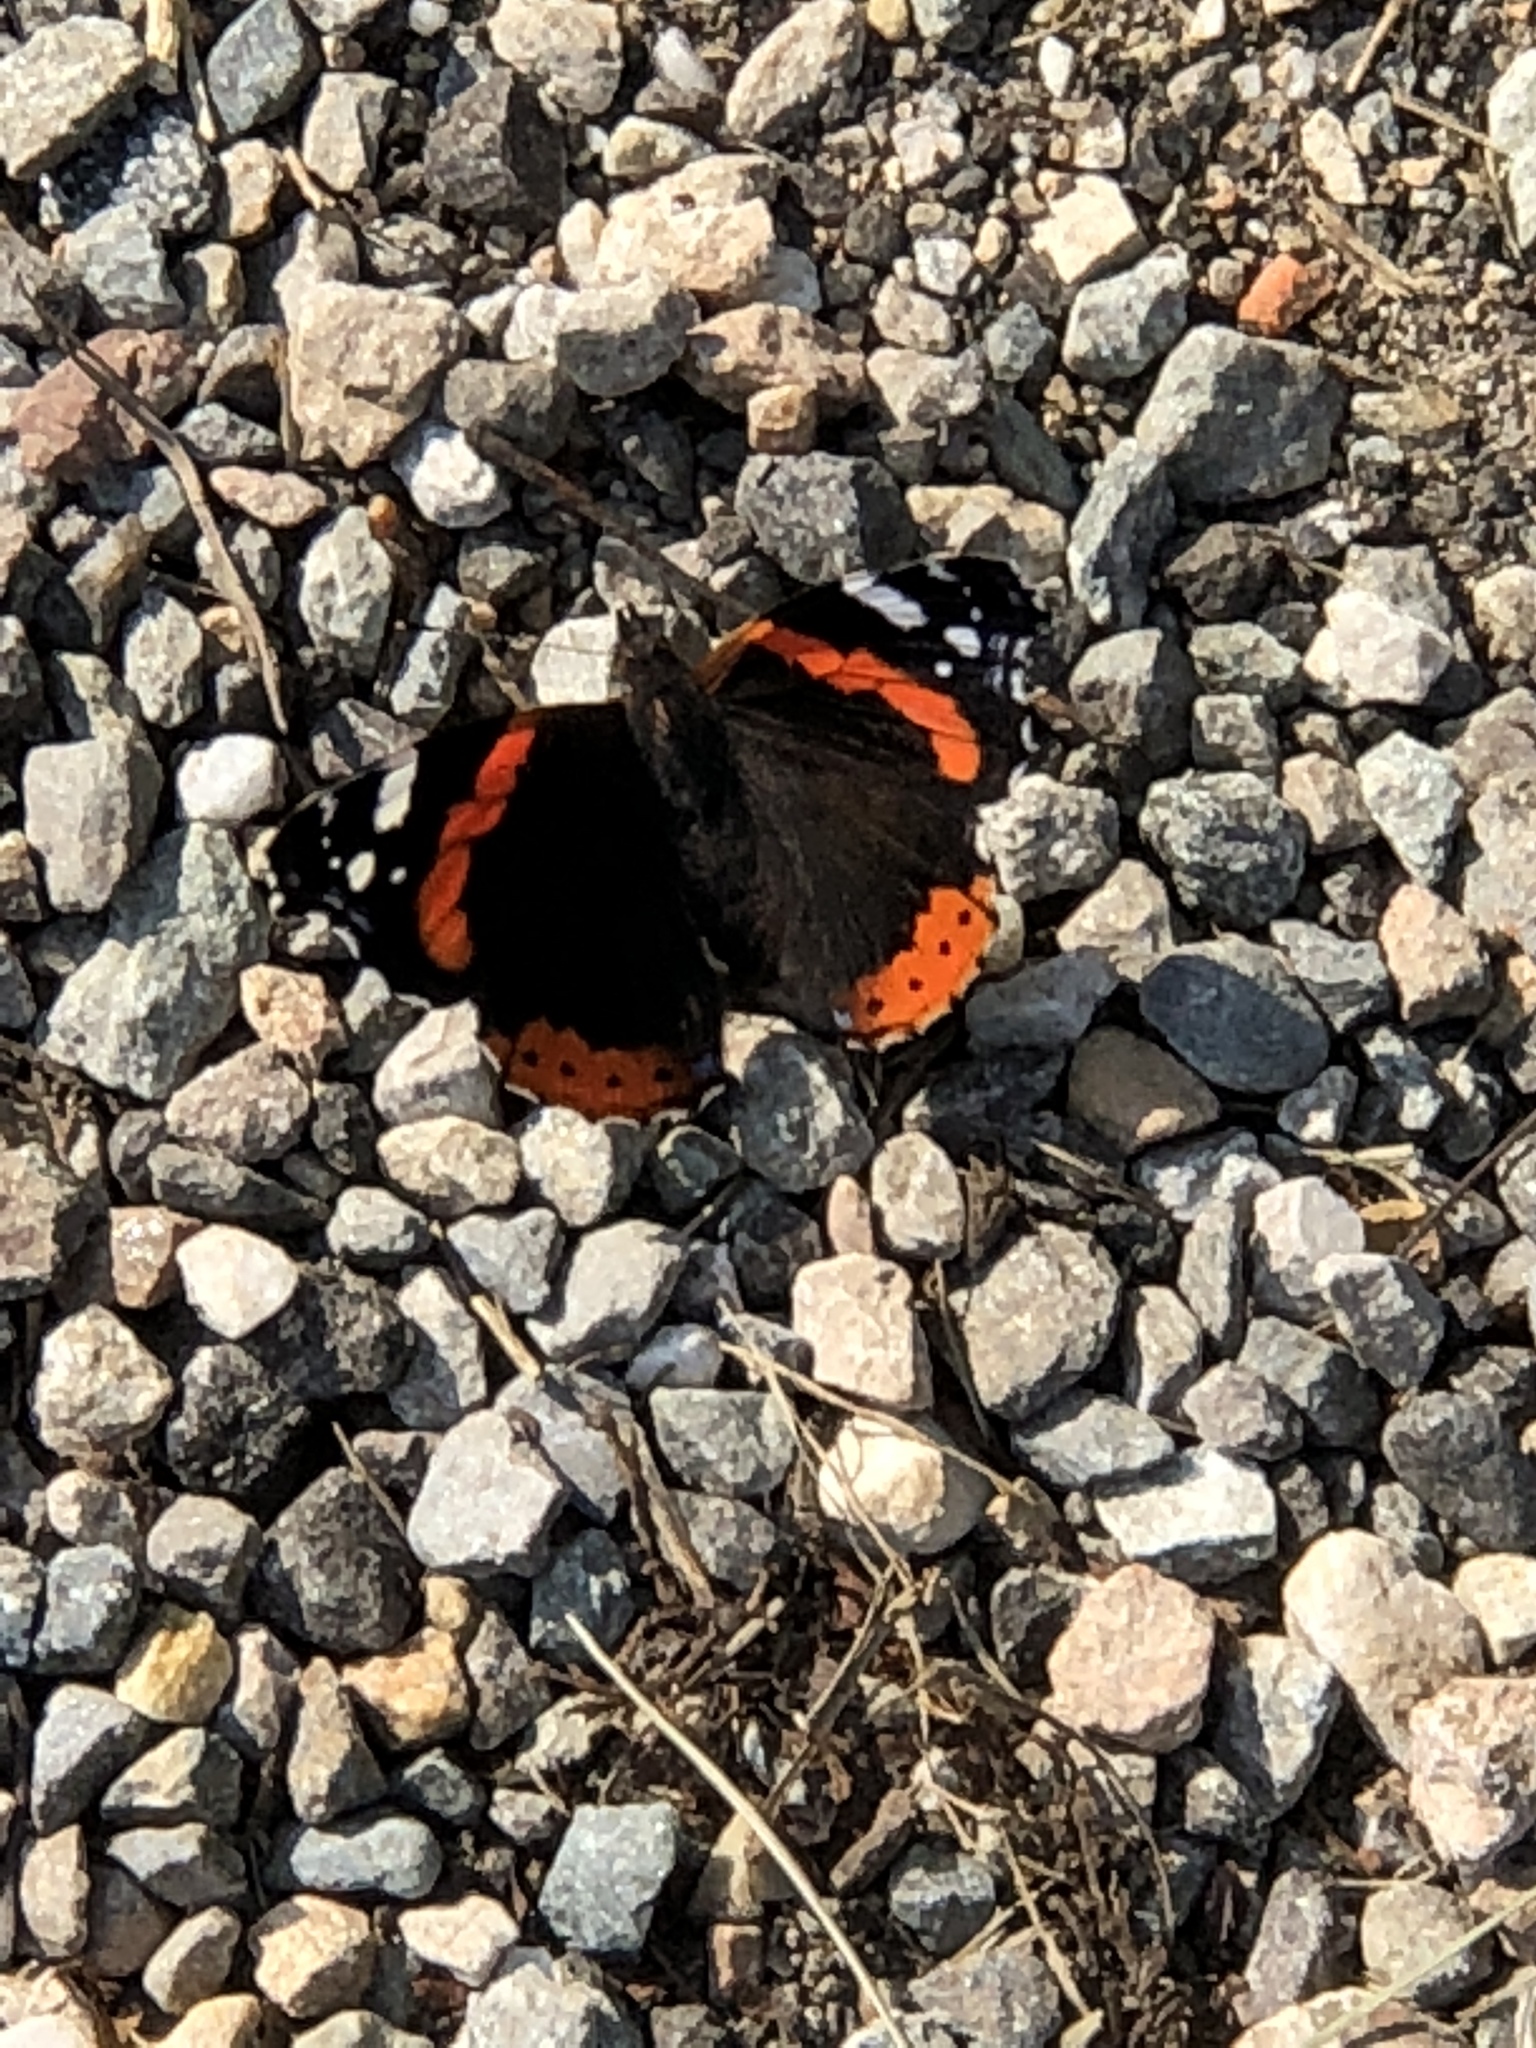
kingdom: Animalia
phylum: Arthropoda
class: Insecta
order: Lepidoptera
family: Nymphalidae
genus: Vanessa
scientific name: Vanessa atalanta
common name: Red admiral
